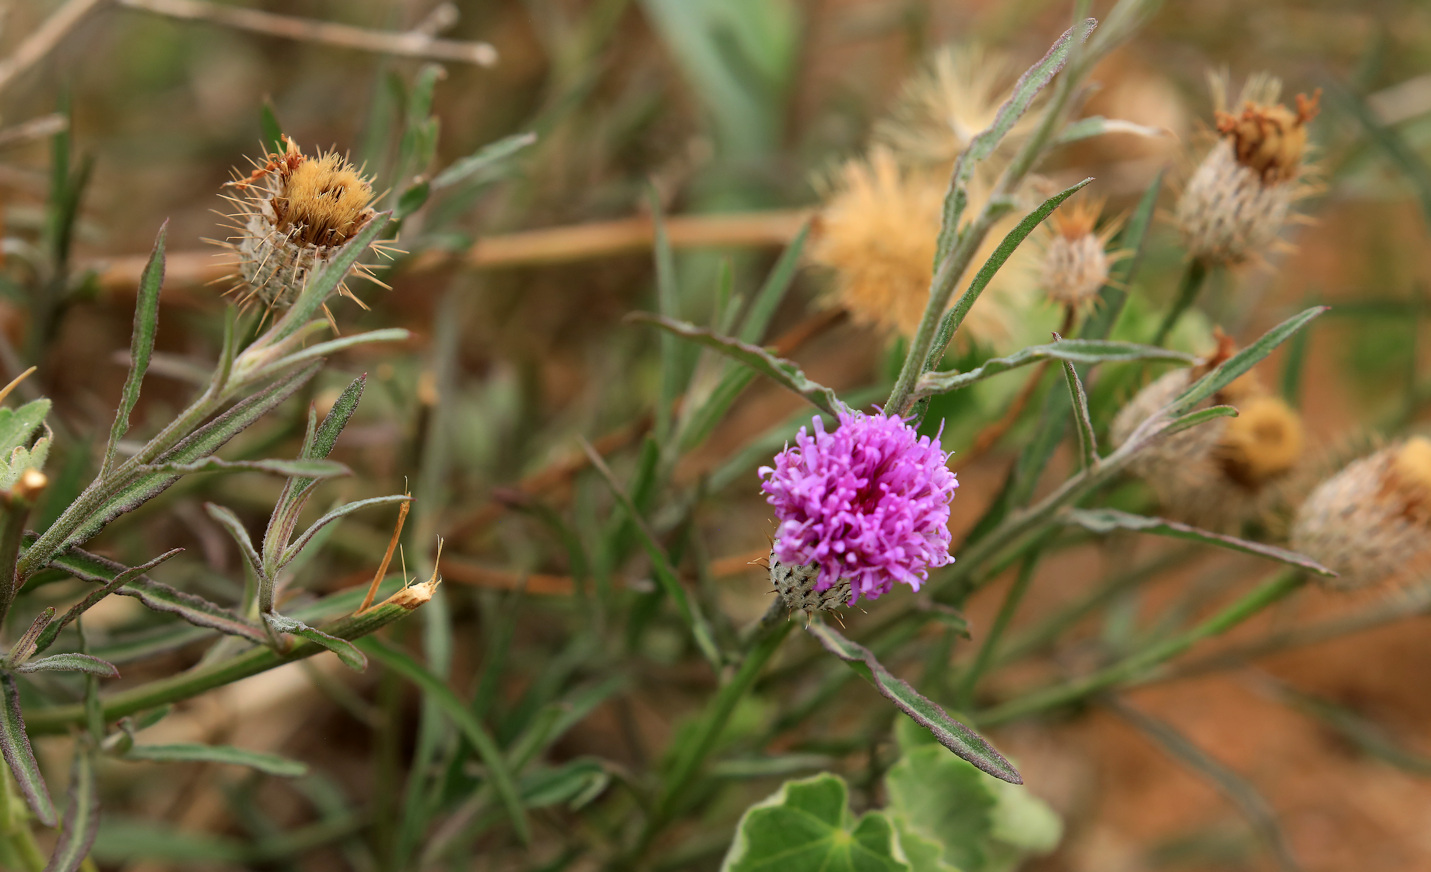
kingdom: Plantae
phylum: Tracheophyta
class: Magnoliopsida
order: Asterales
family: Asteraceae
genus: Parapolydora
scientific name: Parapolydora fastigiata
